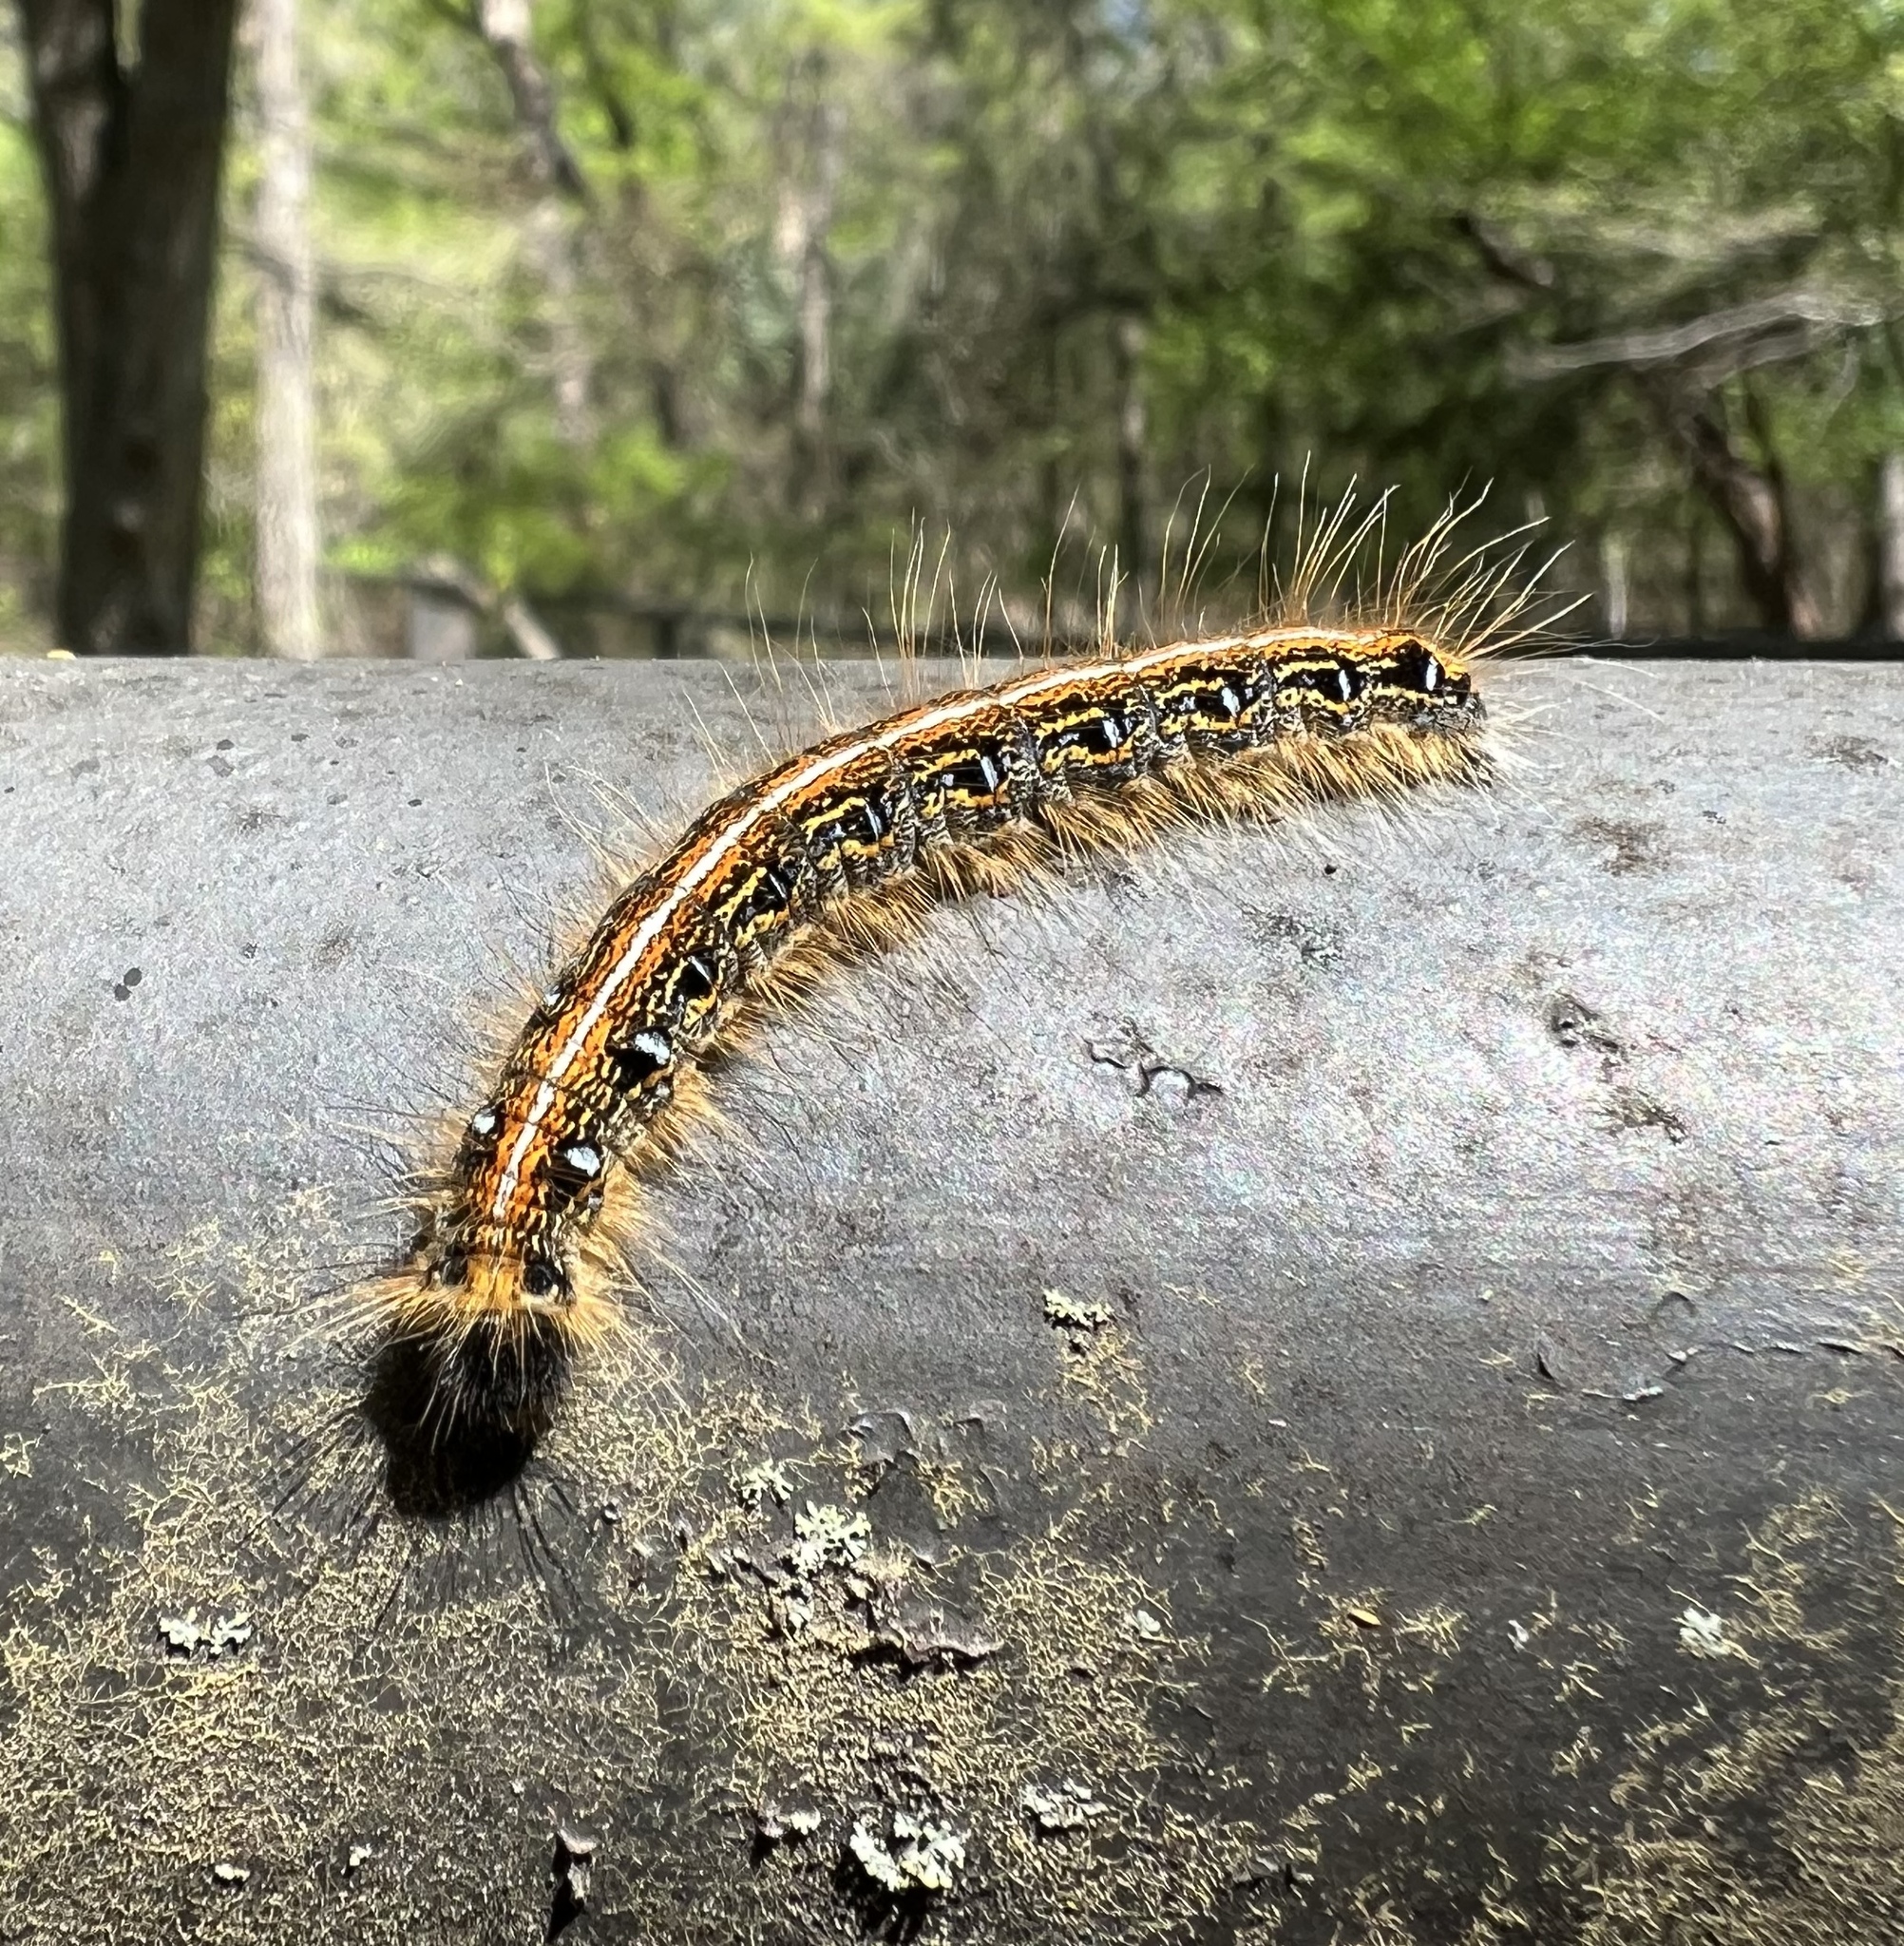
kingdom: Animalia
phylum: Arthropoda
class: Insecta
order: Lepidoptera
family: Lasiocampidae
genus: Malacosoma
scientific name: Malacosoma americana
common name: Eastern tent caterpillar moth
